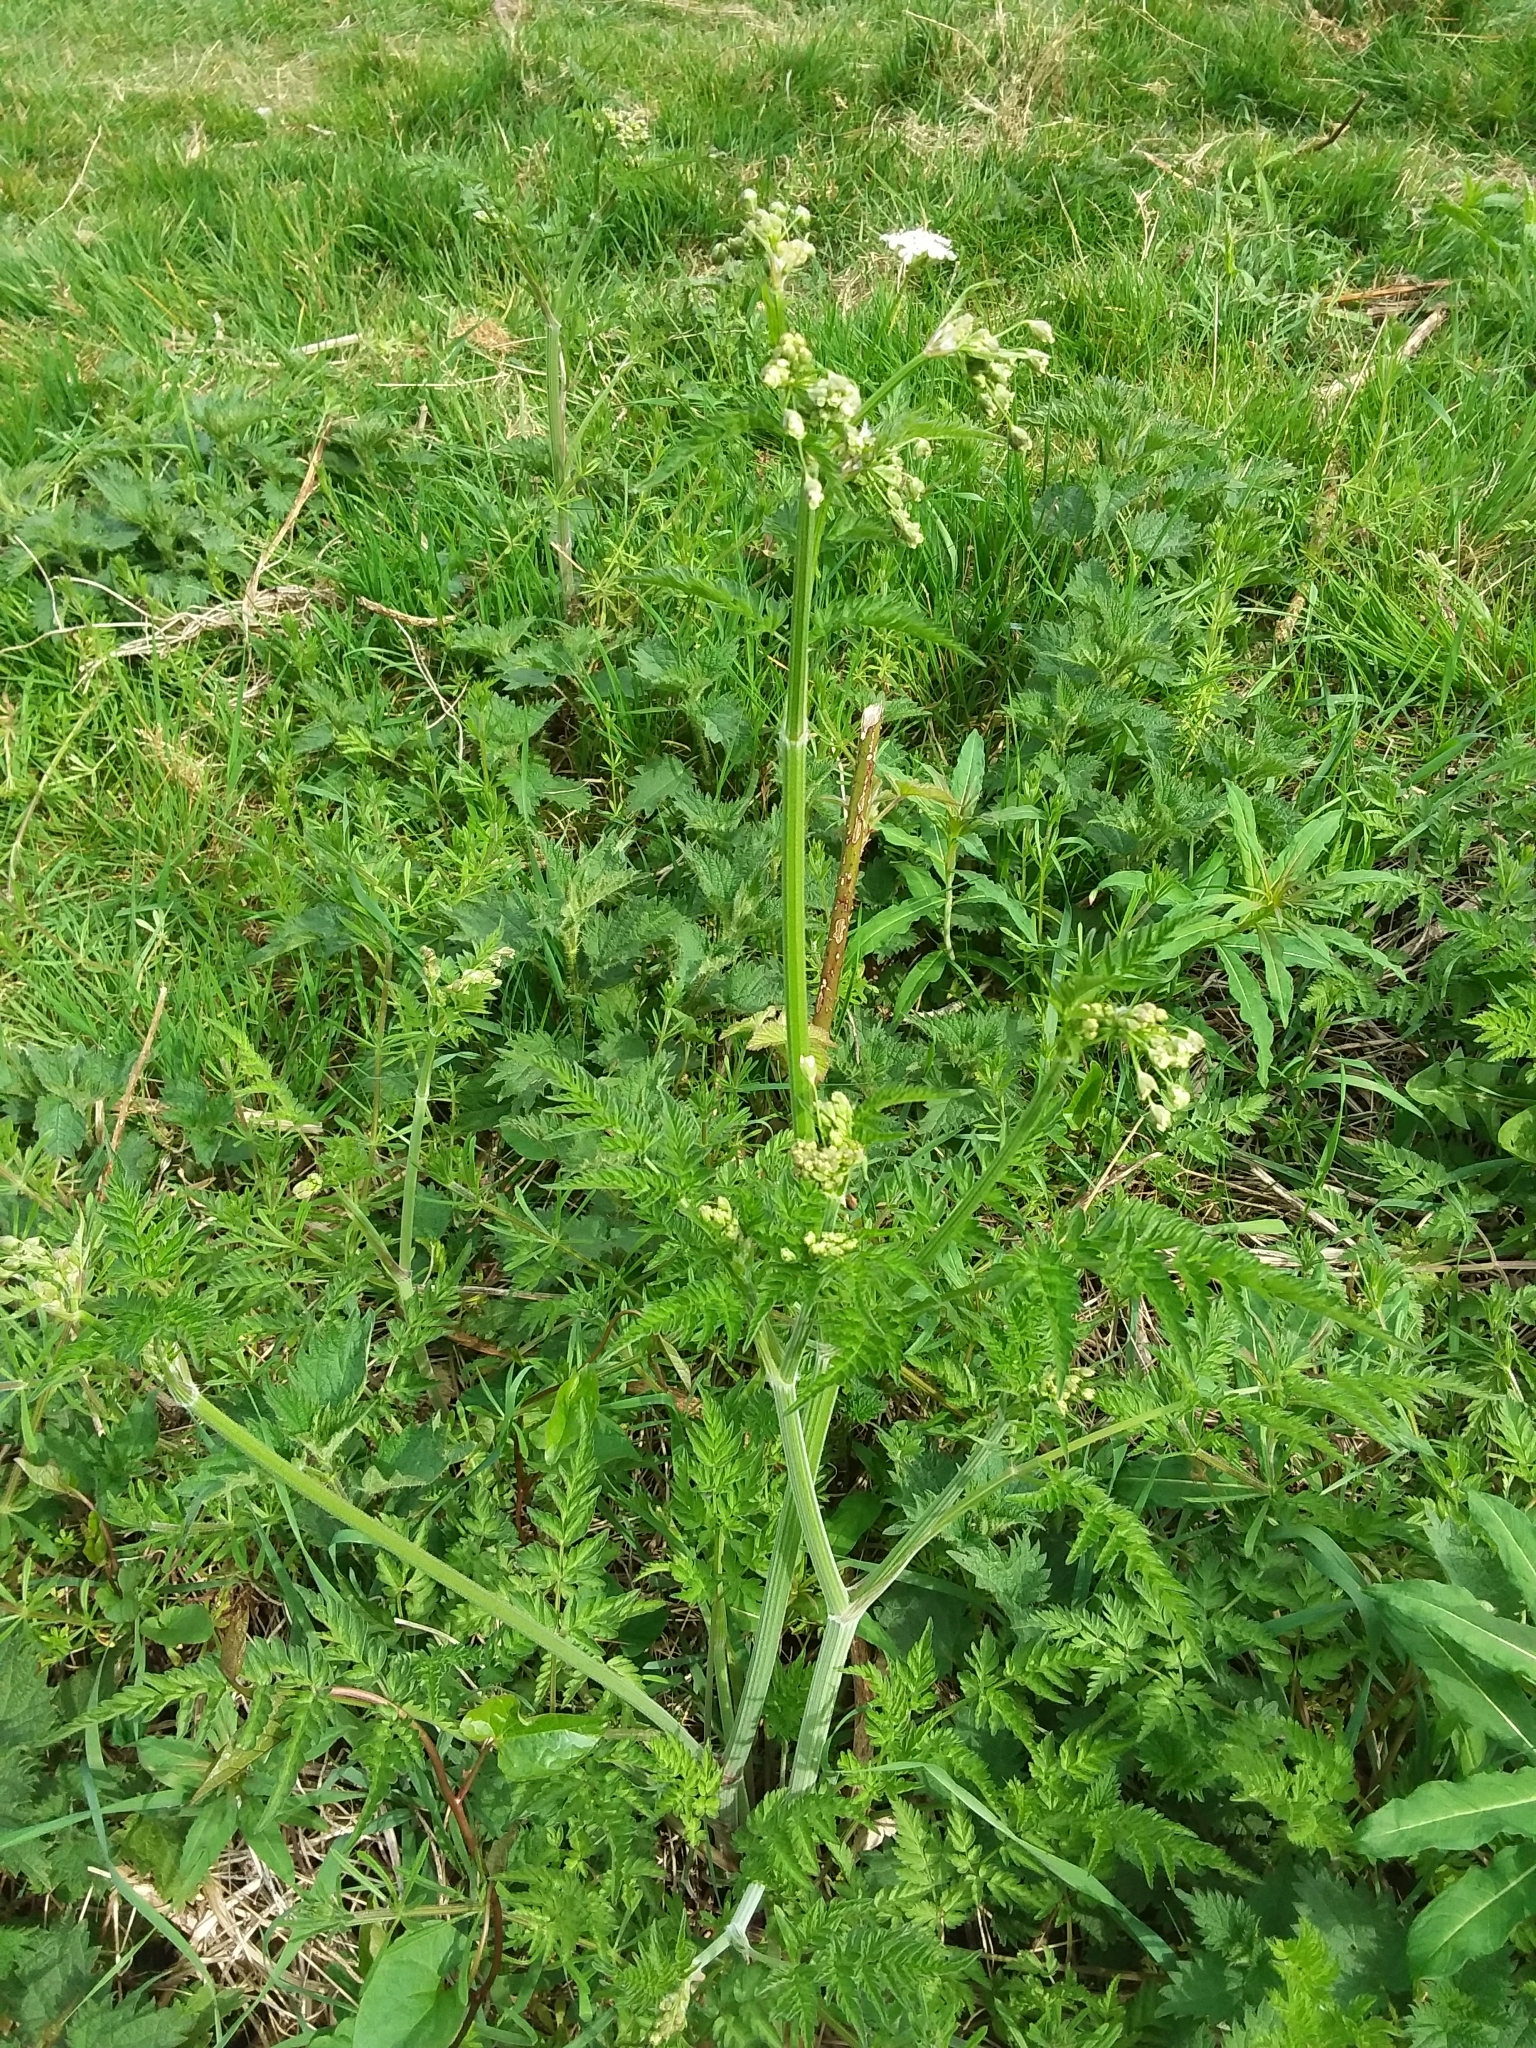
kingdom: Plantae
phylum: Tracheophyta
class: Magnoliopsida
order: Apiales
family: Apiaceae
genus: Anthriscus
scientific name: Anthriscus sylvestris
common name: Cow parsley
